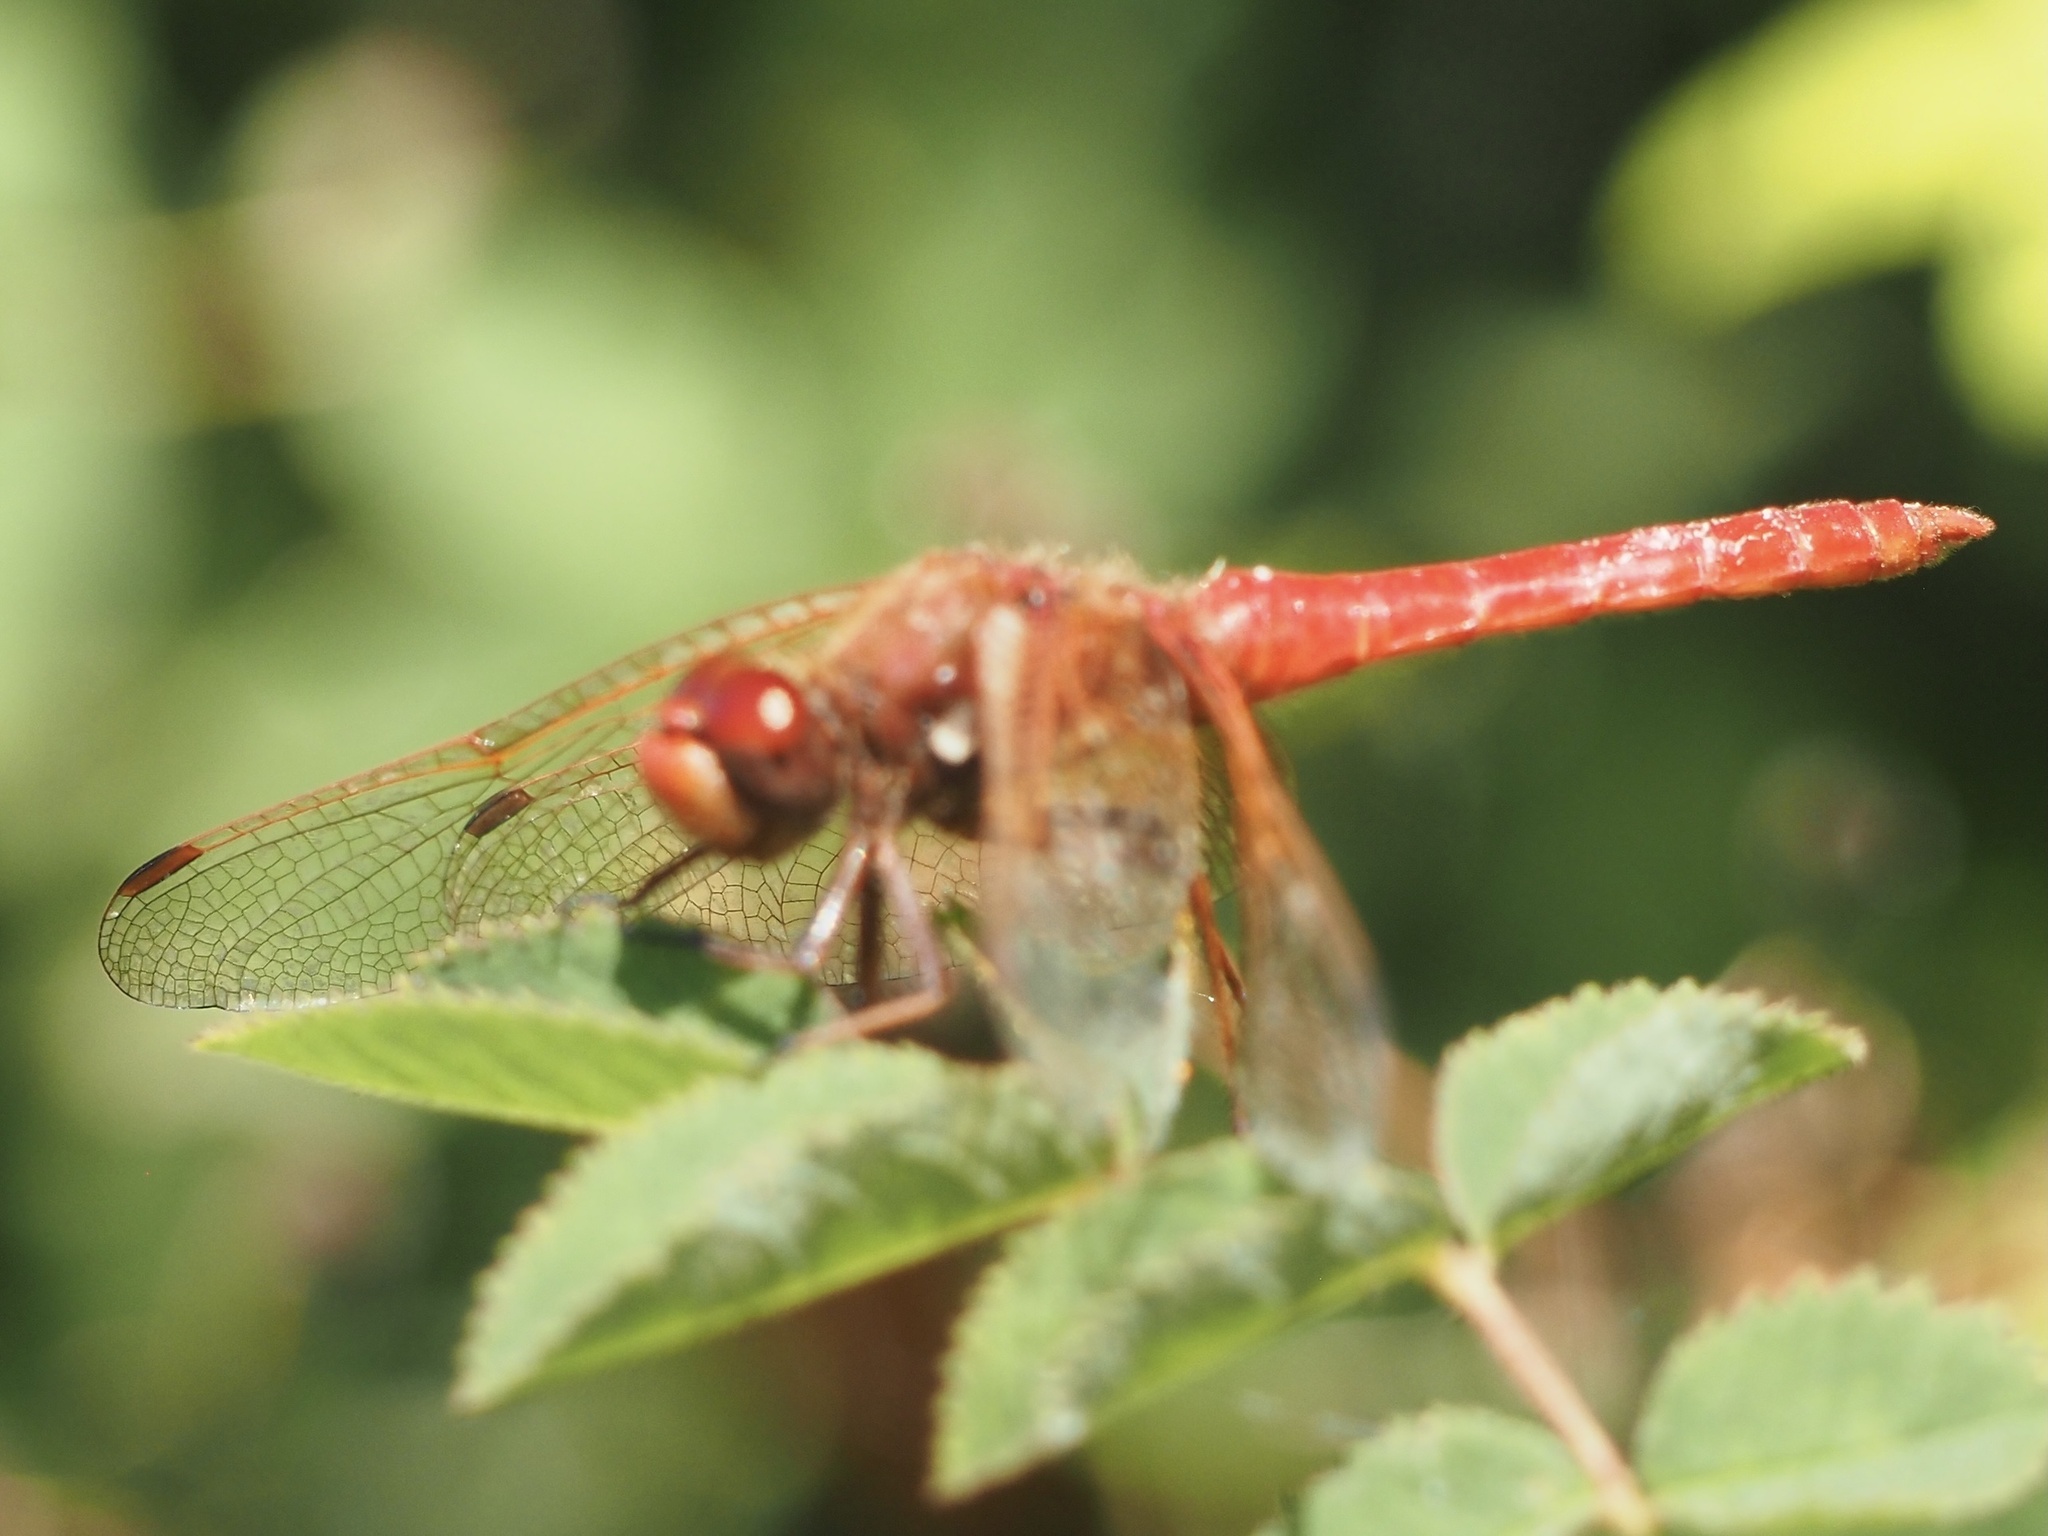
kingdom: Animalia
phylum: Arthropoda
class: Insecta
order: Odonata
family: Libellulidae
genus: Sympetrum
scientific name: Sympetrum illotum
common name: Cardinal meadowhawk
